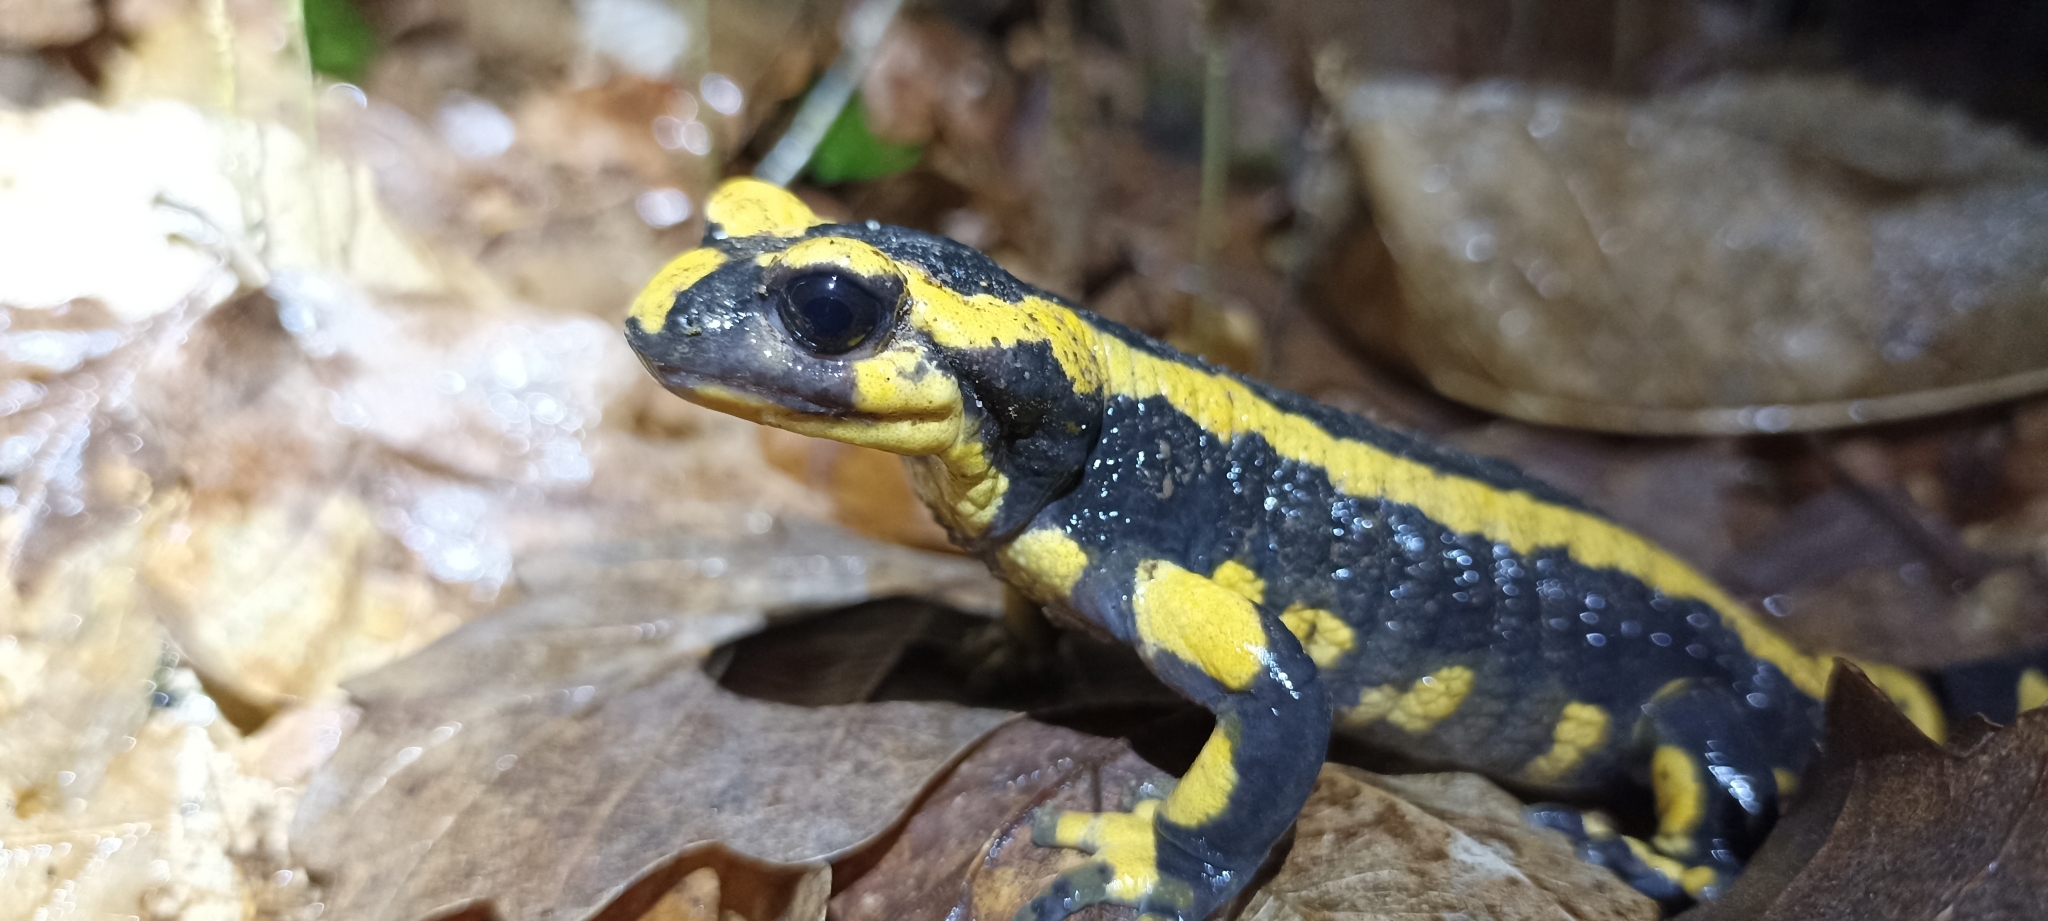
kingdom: Animalia
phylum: Chordata
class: Amphibia
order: Caudata
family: Salamandridae
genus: Salamandra
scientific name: Salamandra salamandra
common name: Fire salamander
